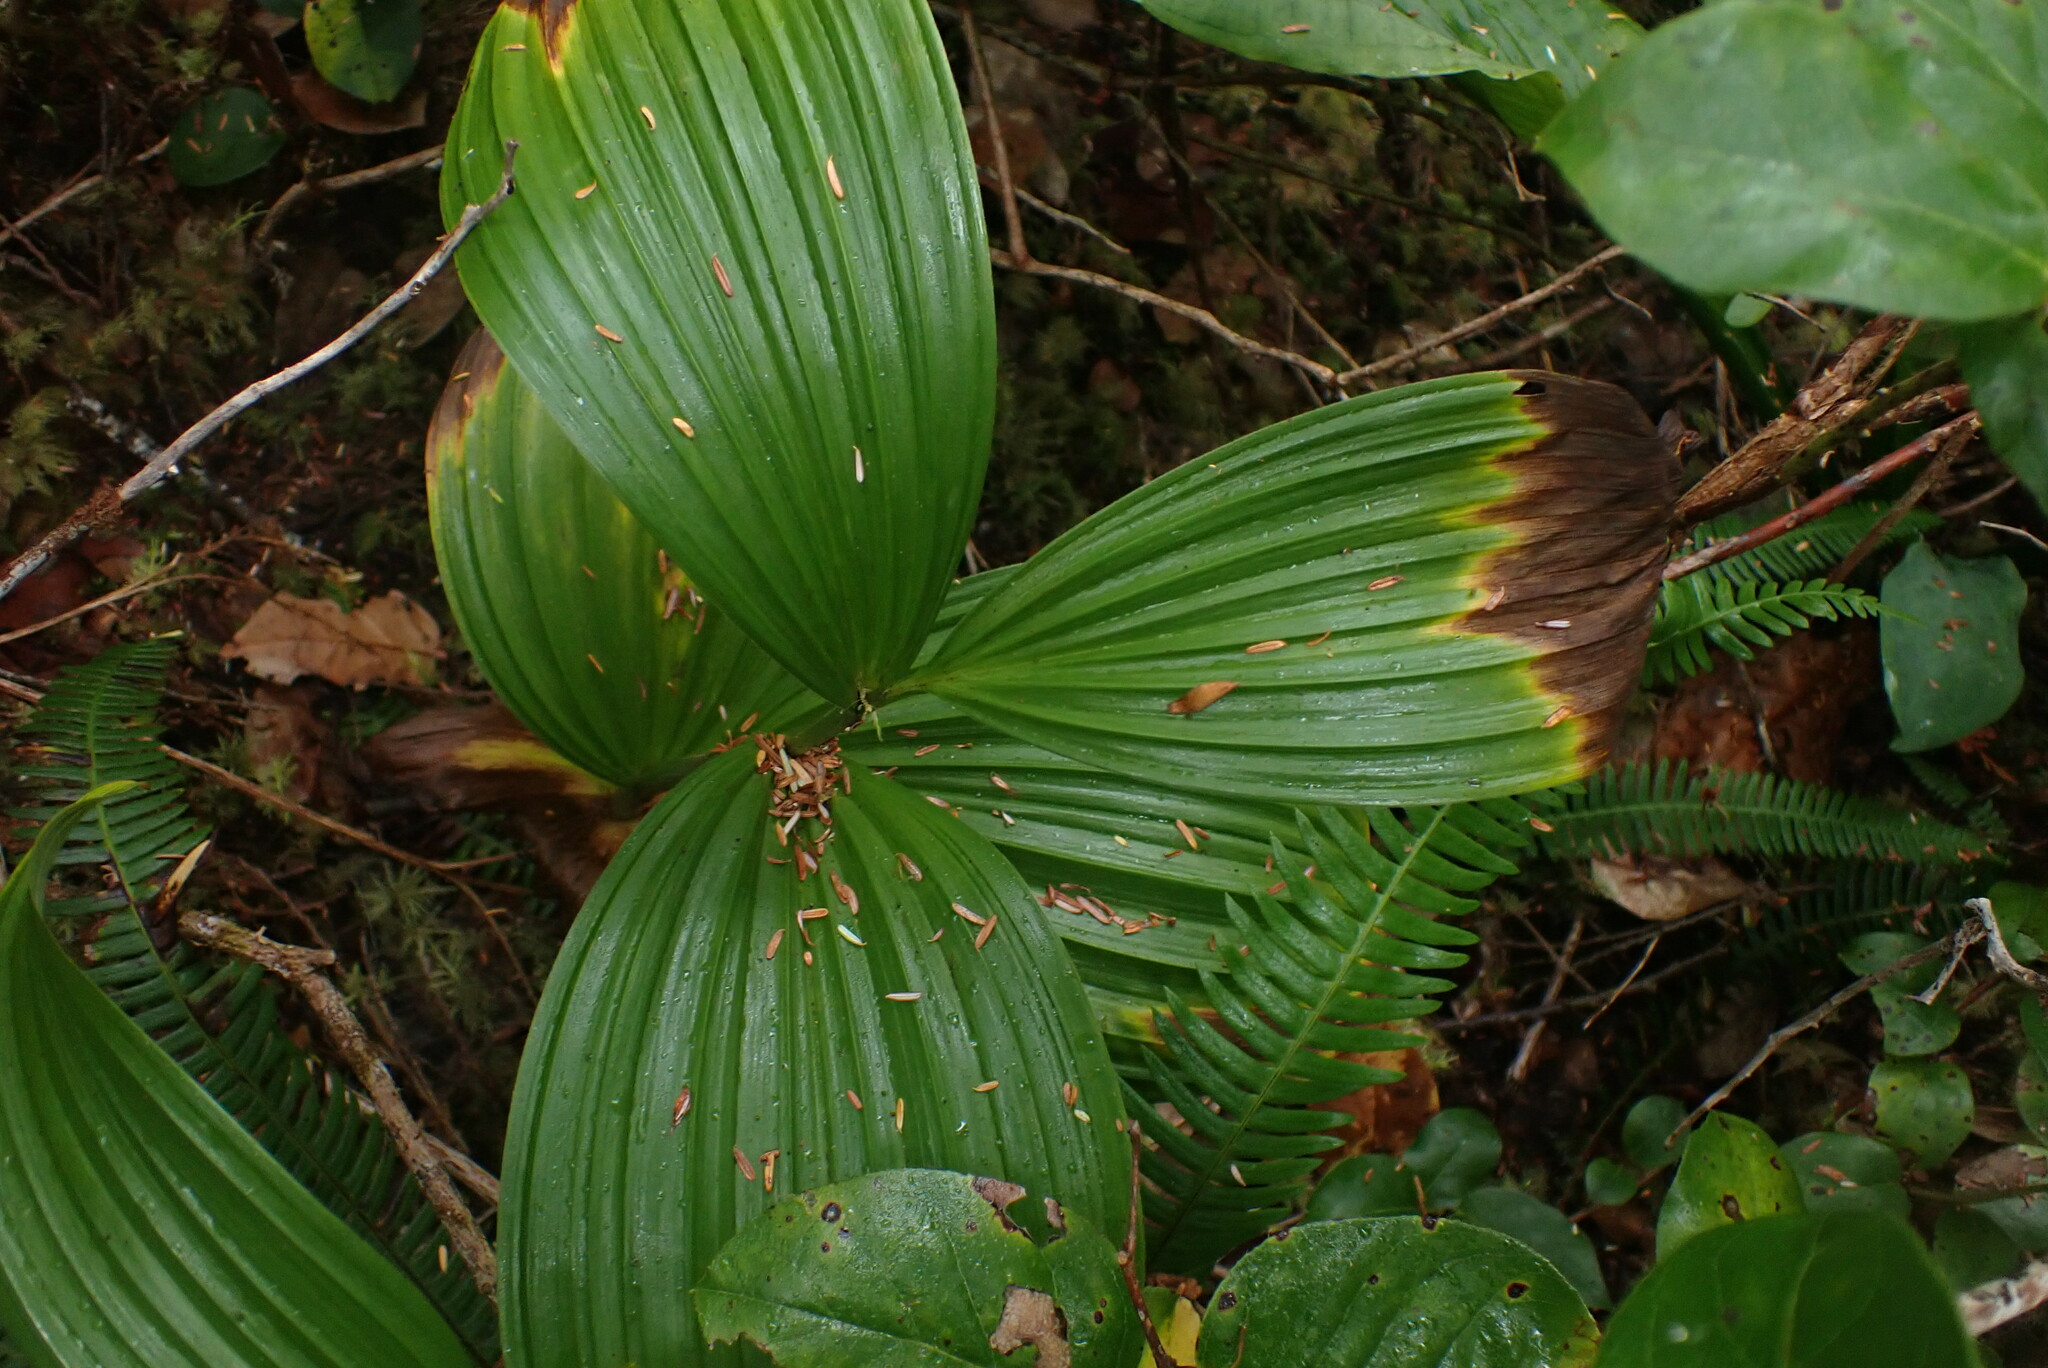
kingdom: Plantae
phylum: Tracheophyta
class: Liliopsida
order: Liliales
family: Melanthiaceae
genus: Veratrum
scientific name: Veratrum viride
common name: American false hellebore
